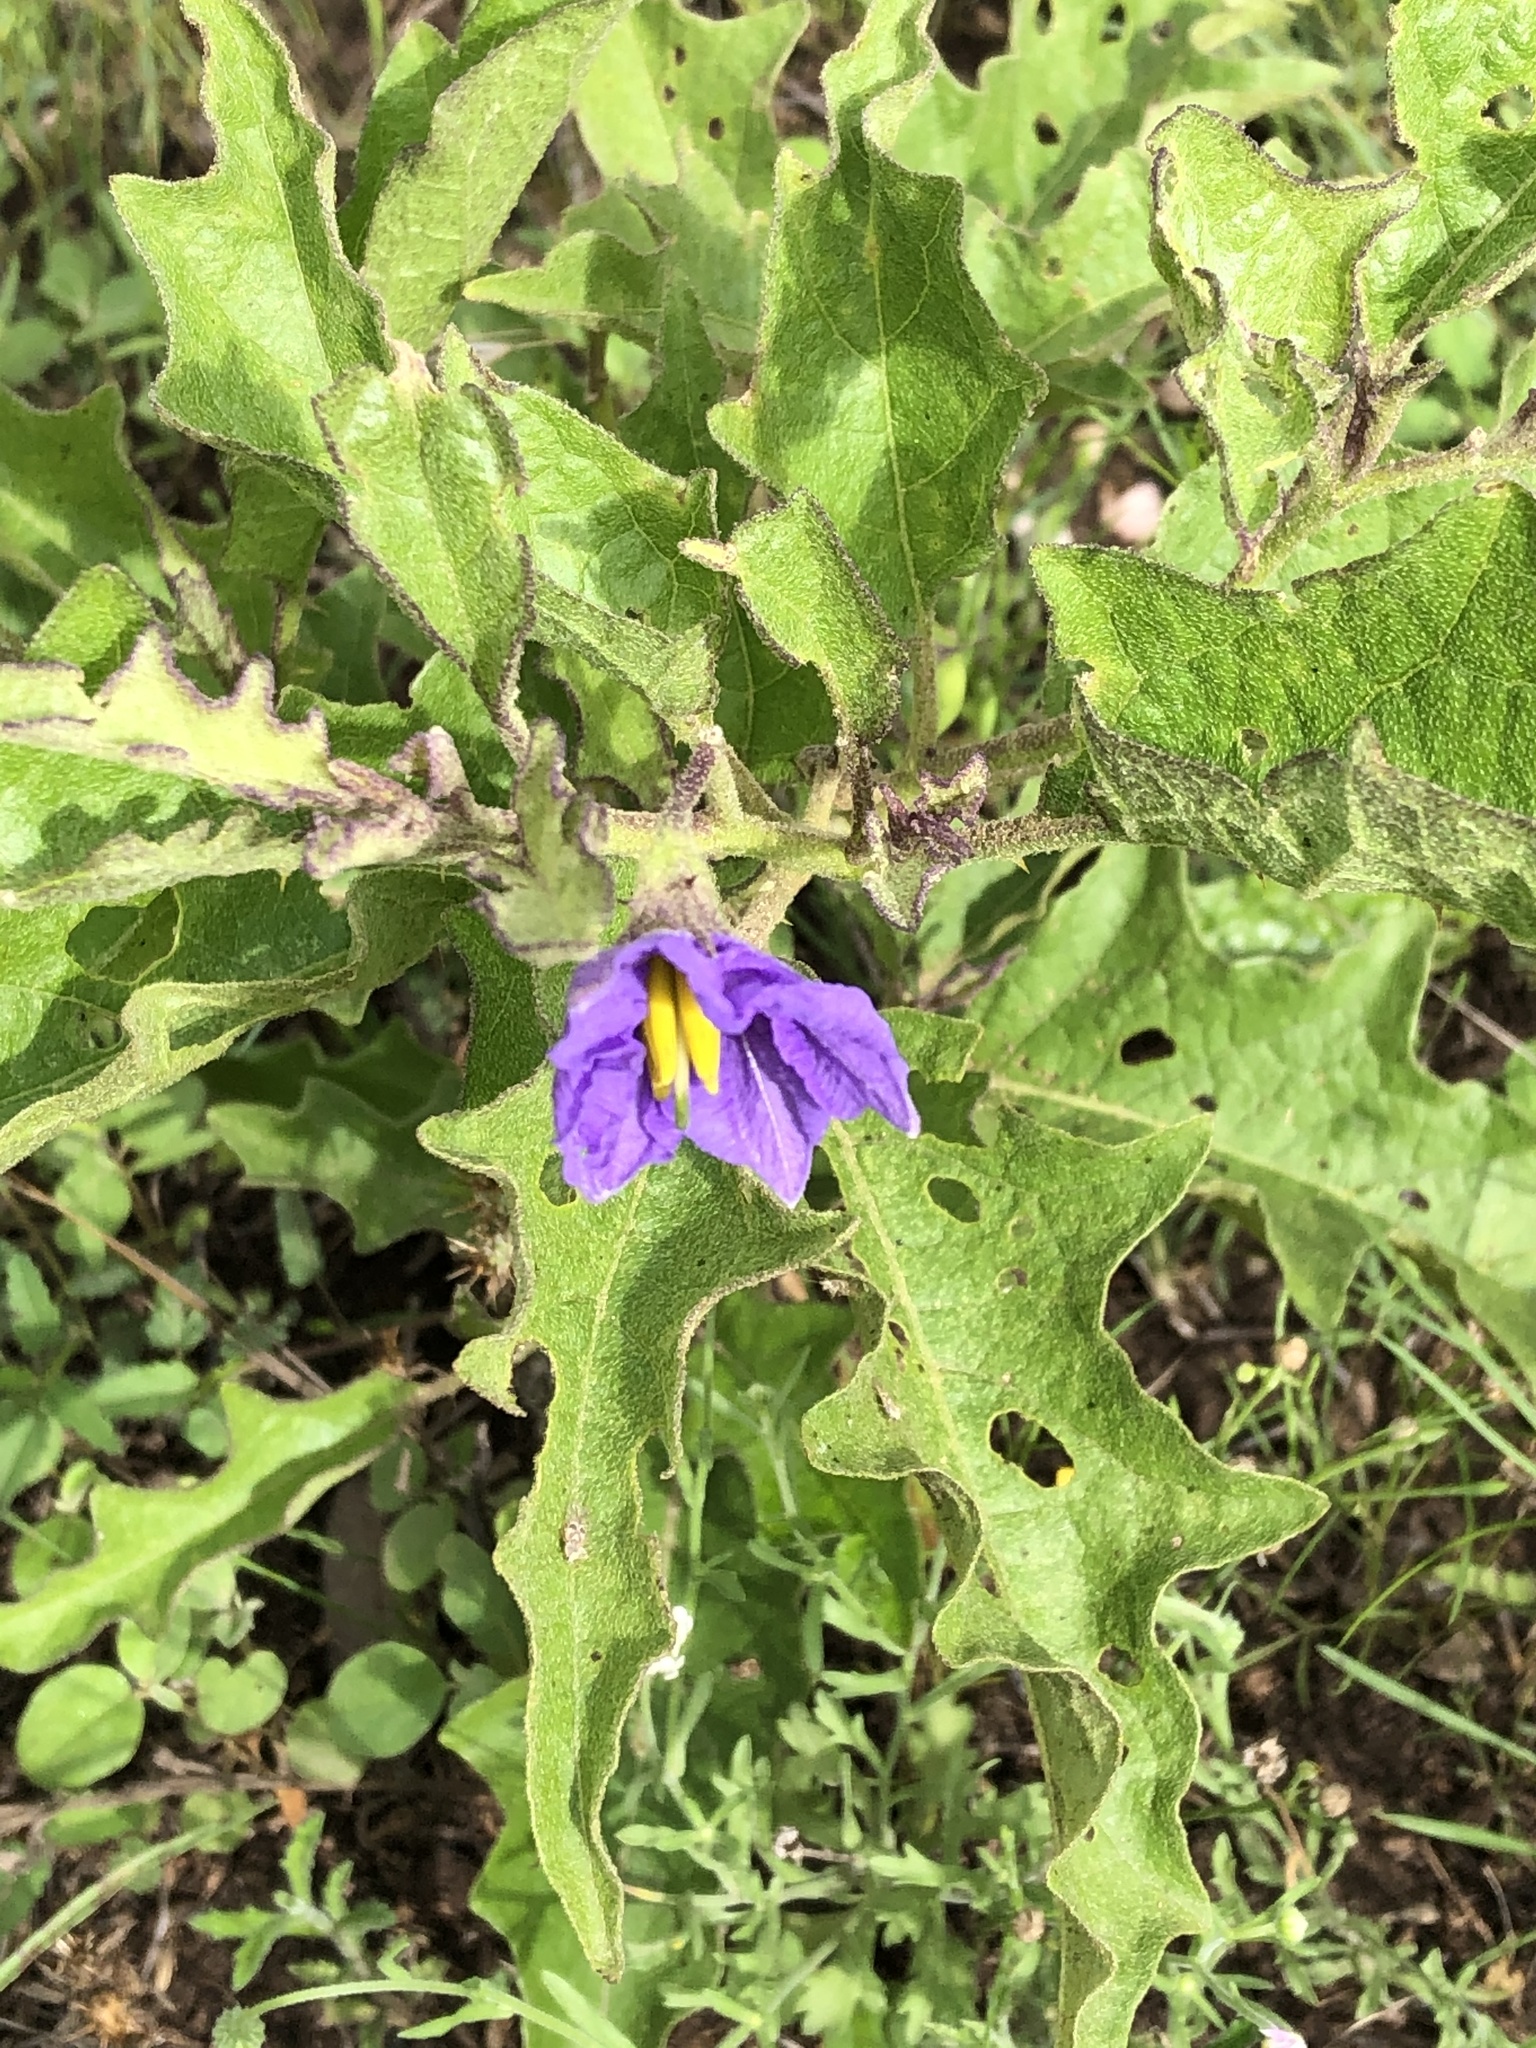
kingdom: Plantae
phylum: Tracheophyta
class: Magnoliopsida
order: Solanales
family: Solanaceae
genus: Solanum
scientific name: Solanum dimidiatum
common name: Carolina horse-nettle
